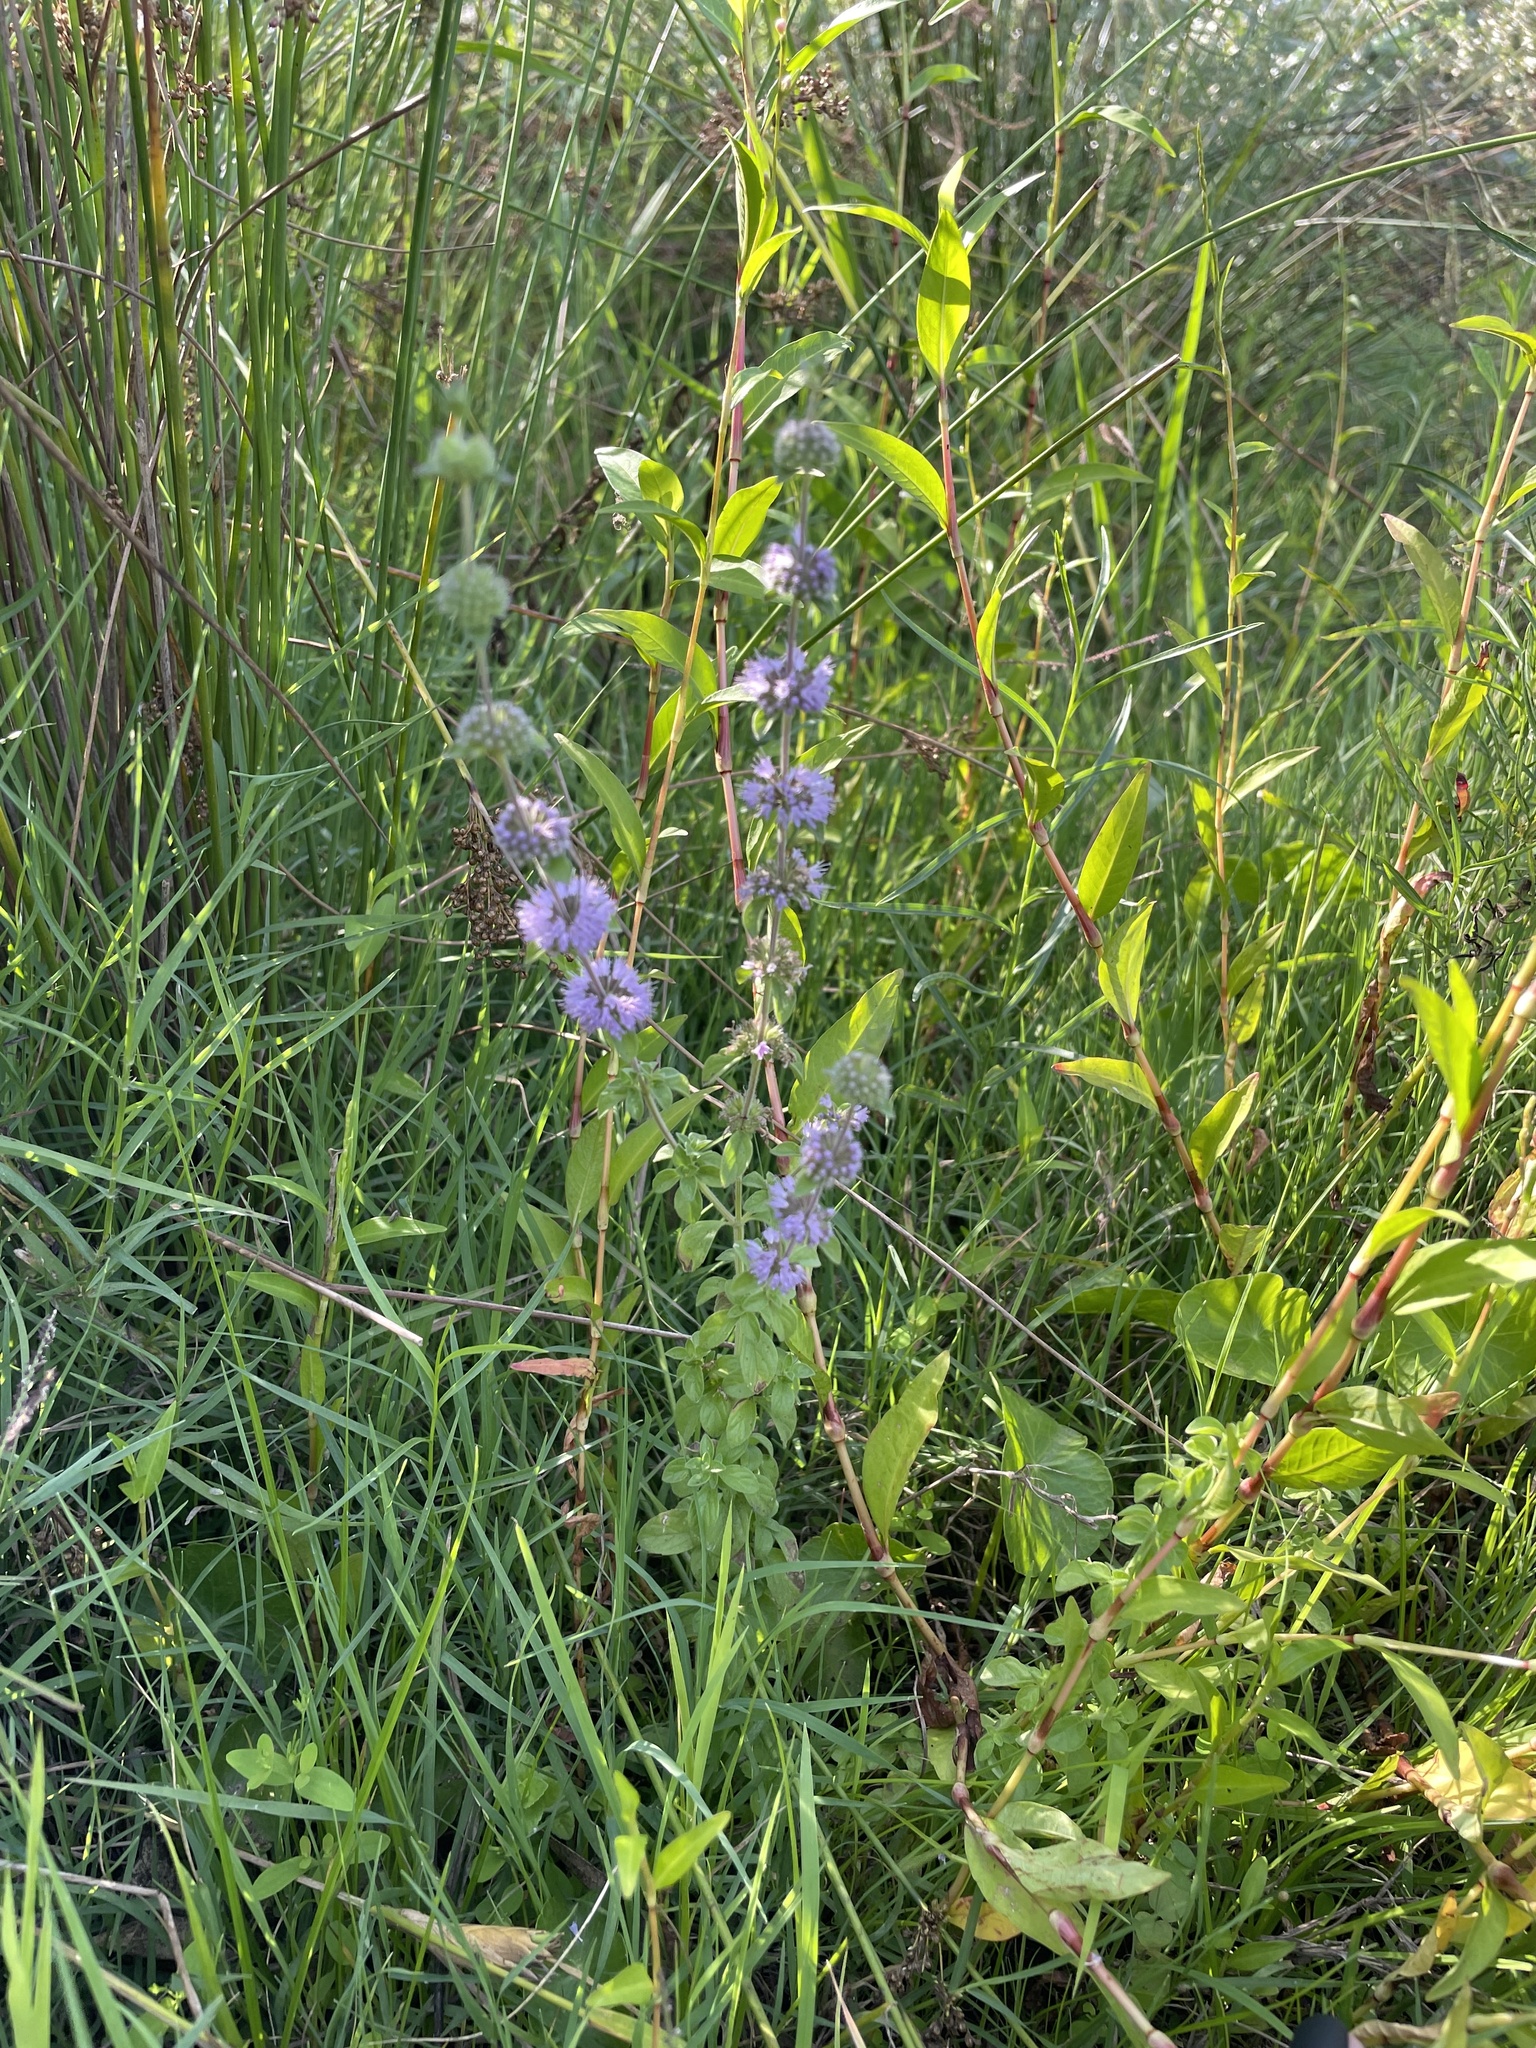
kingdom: Plantae
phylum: Tracheophyta
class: Magnoliopsida
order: Lamiales
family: Lamiaceae
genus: Mentha
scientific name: Mentha pulegium
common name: Pennyroyal
